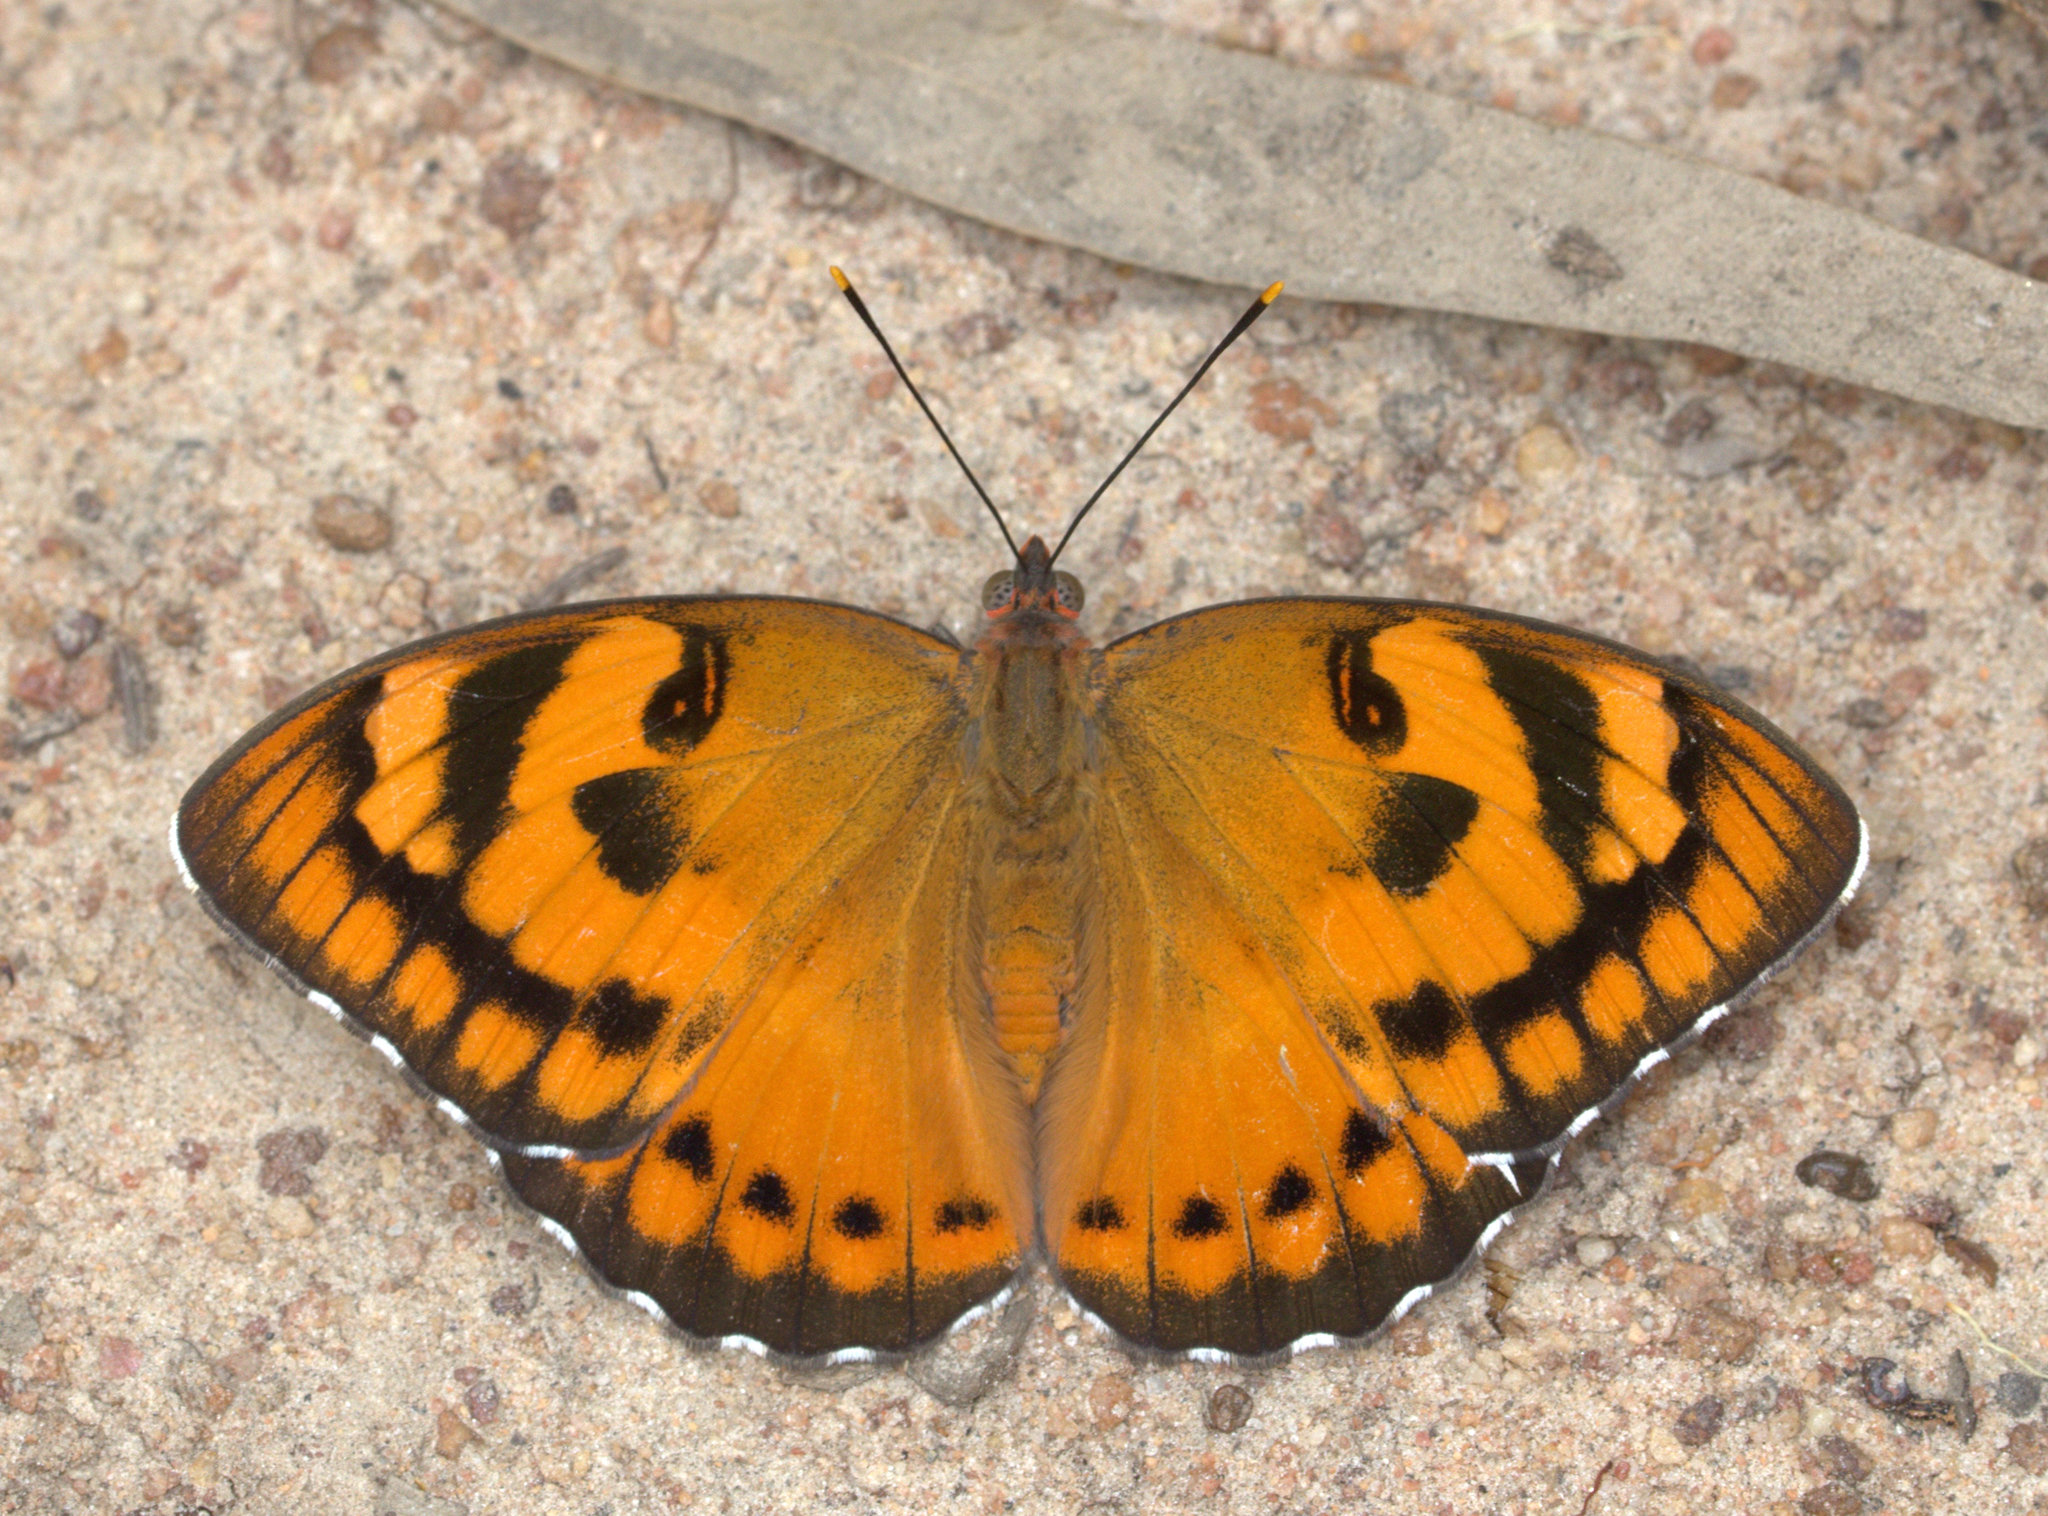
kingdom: Animalia
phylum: Arthropoda
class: Insecta
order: Lepidoptera
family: Nymphalidae
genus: Euthalia
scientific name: Euthalia nais
